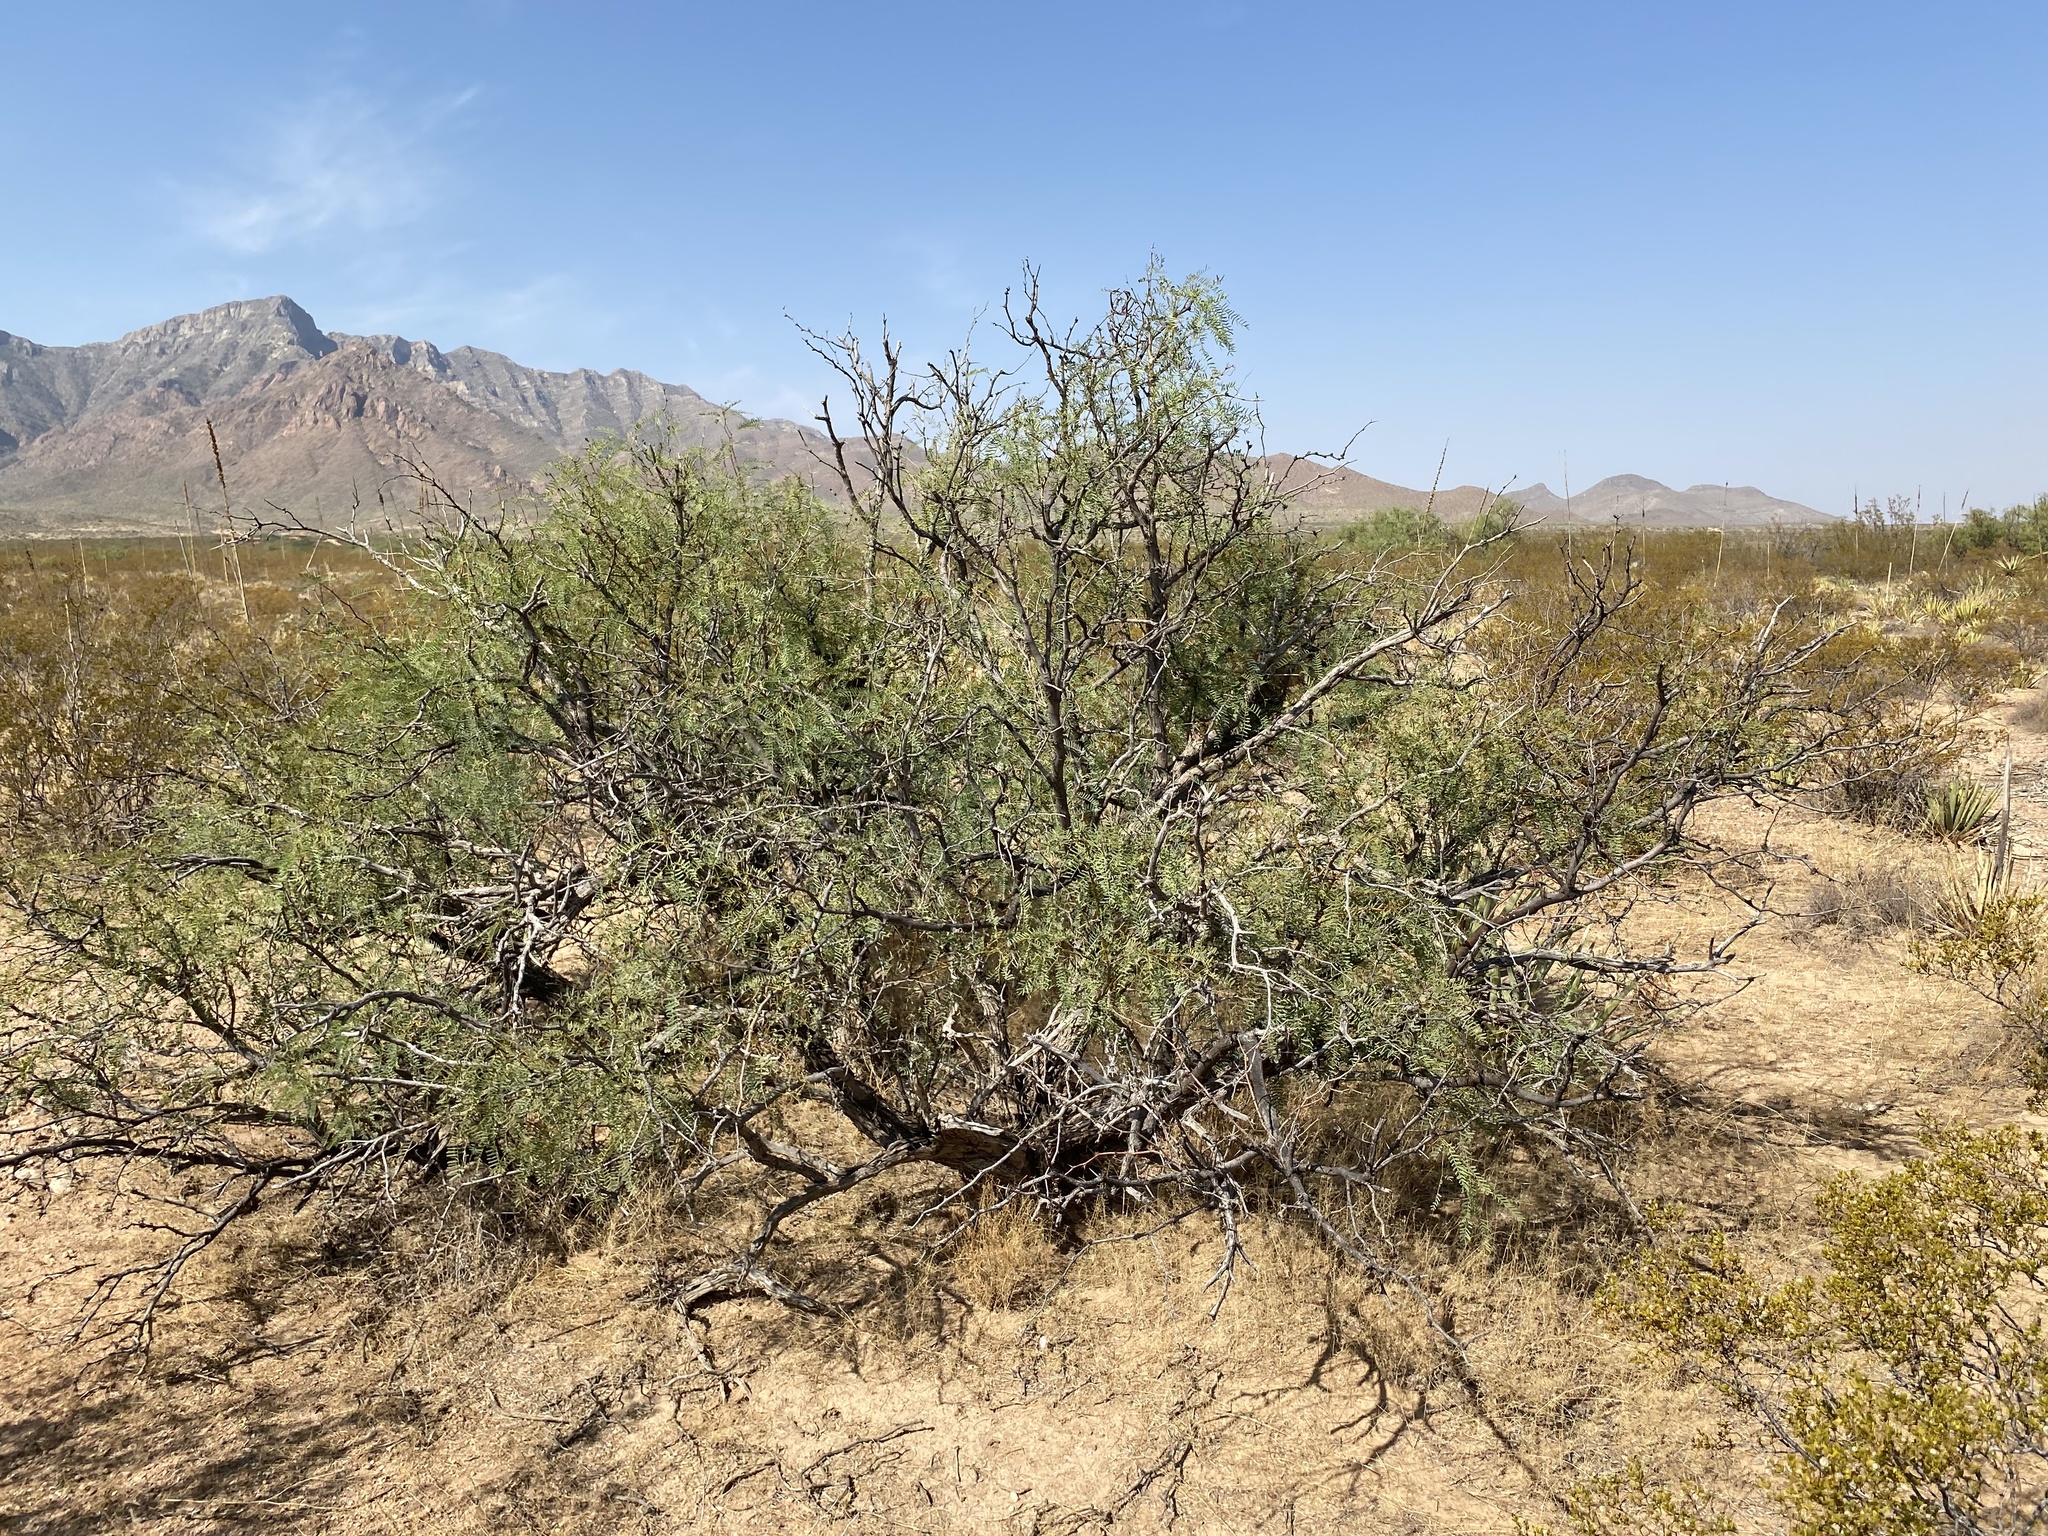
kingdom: Plantae
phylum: Tracheophyta
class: Magnoliopsida
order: Fabales
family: Fabaceae
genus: Prosopis
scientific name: Prosopis glandulosa
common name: Honey mesquite
